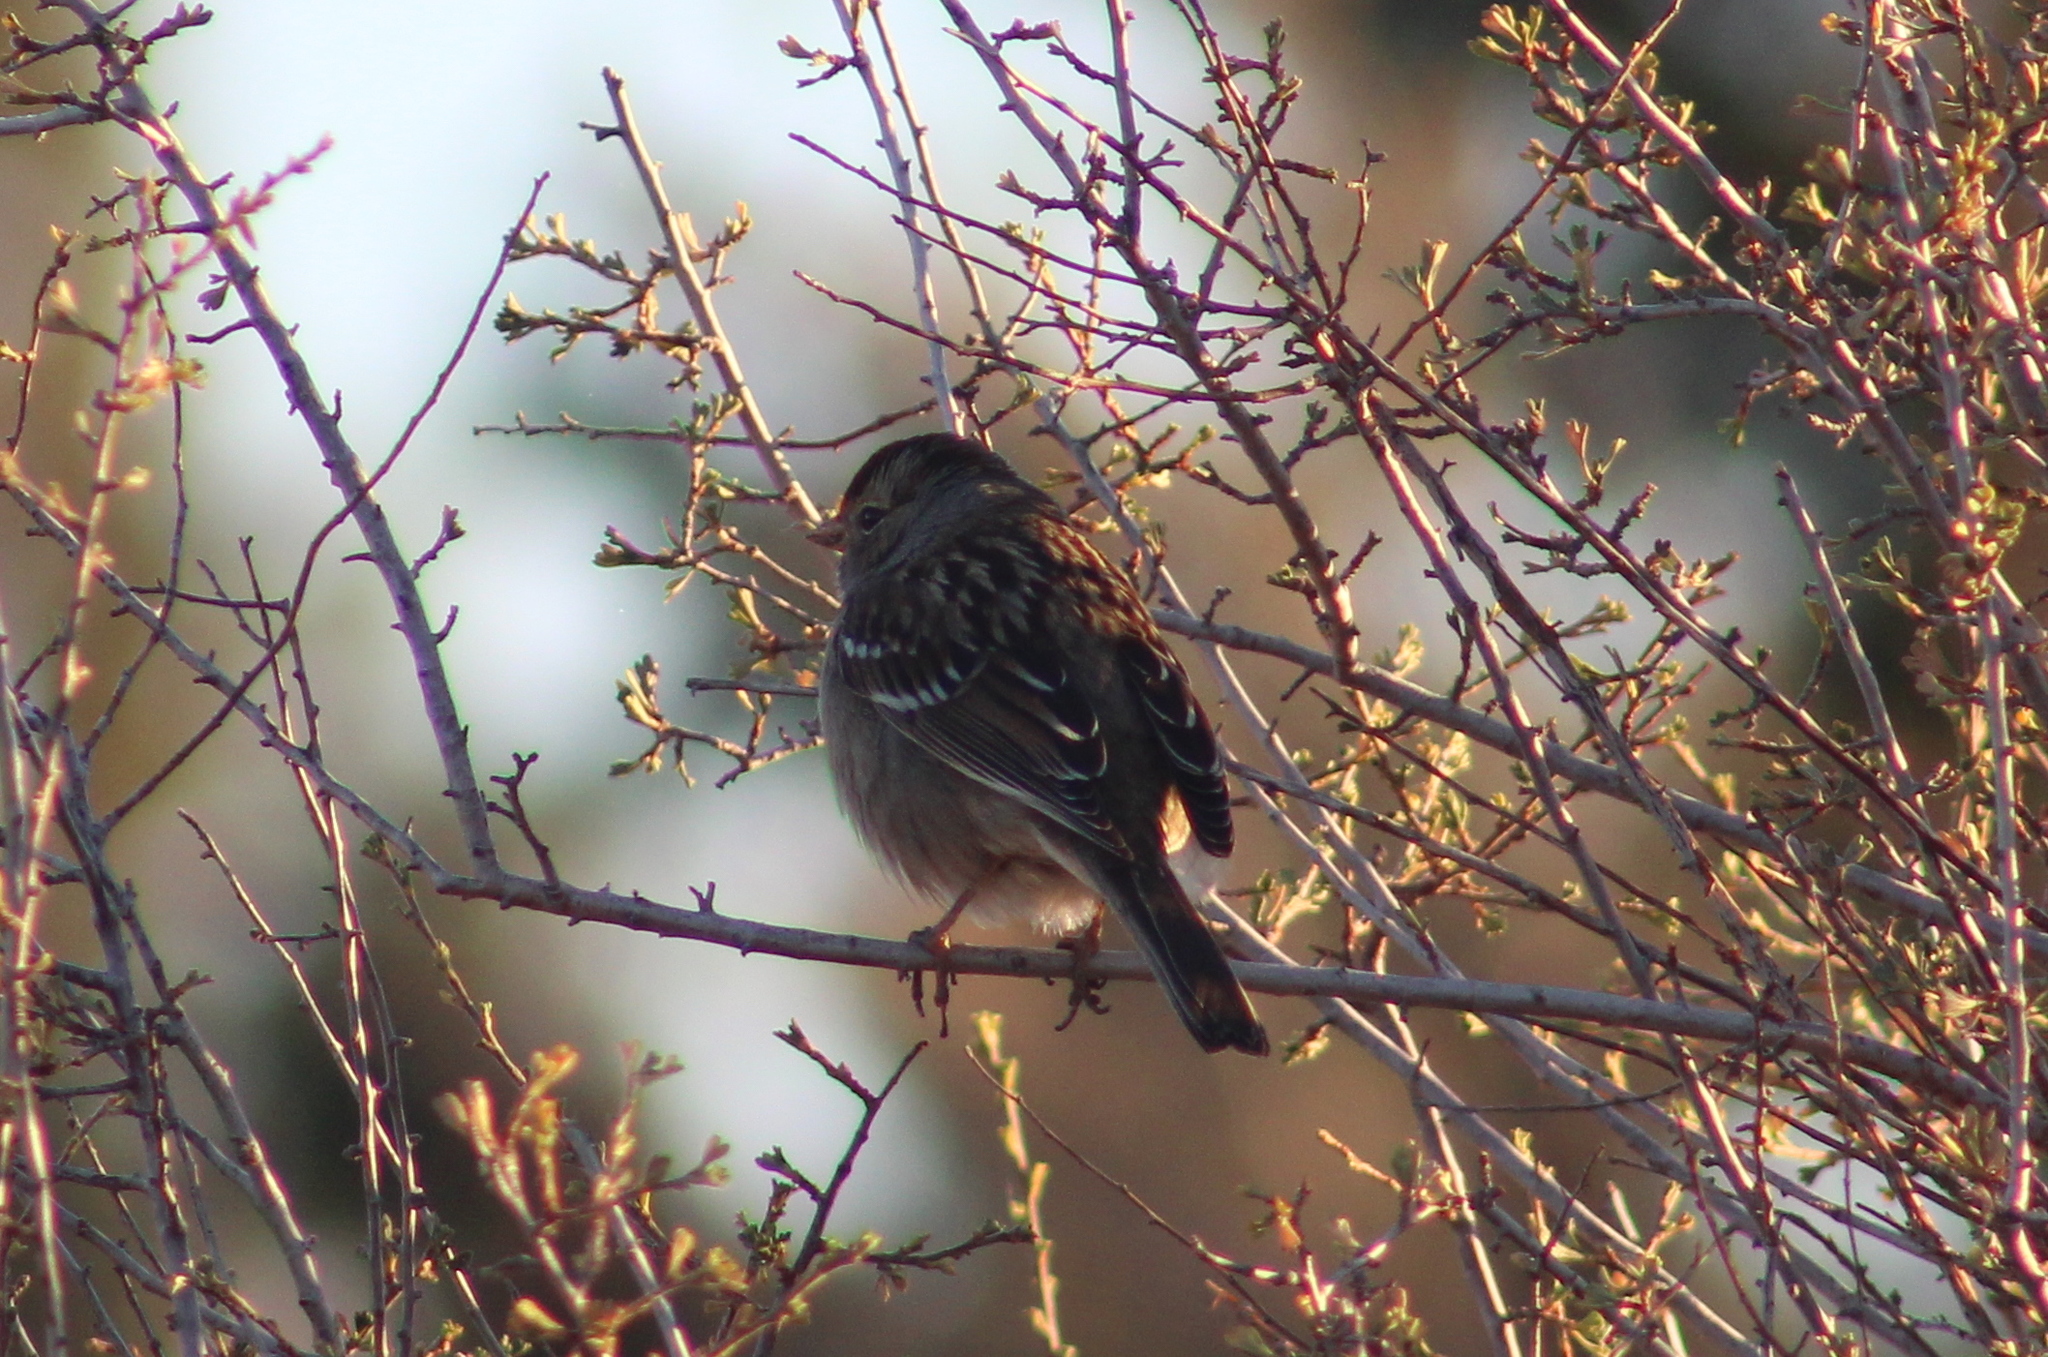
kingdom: Animalia
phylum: Chordata
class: Aves
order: Passeriformes
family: Passerellidae
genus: Zonotrichia
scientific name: Zonotrichia leucophrys
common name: White-crowned sparrow
